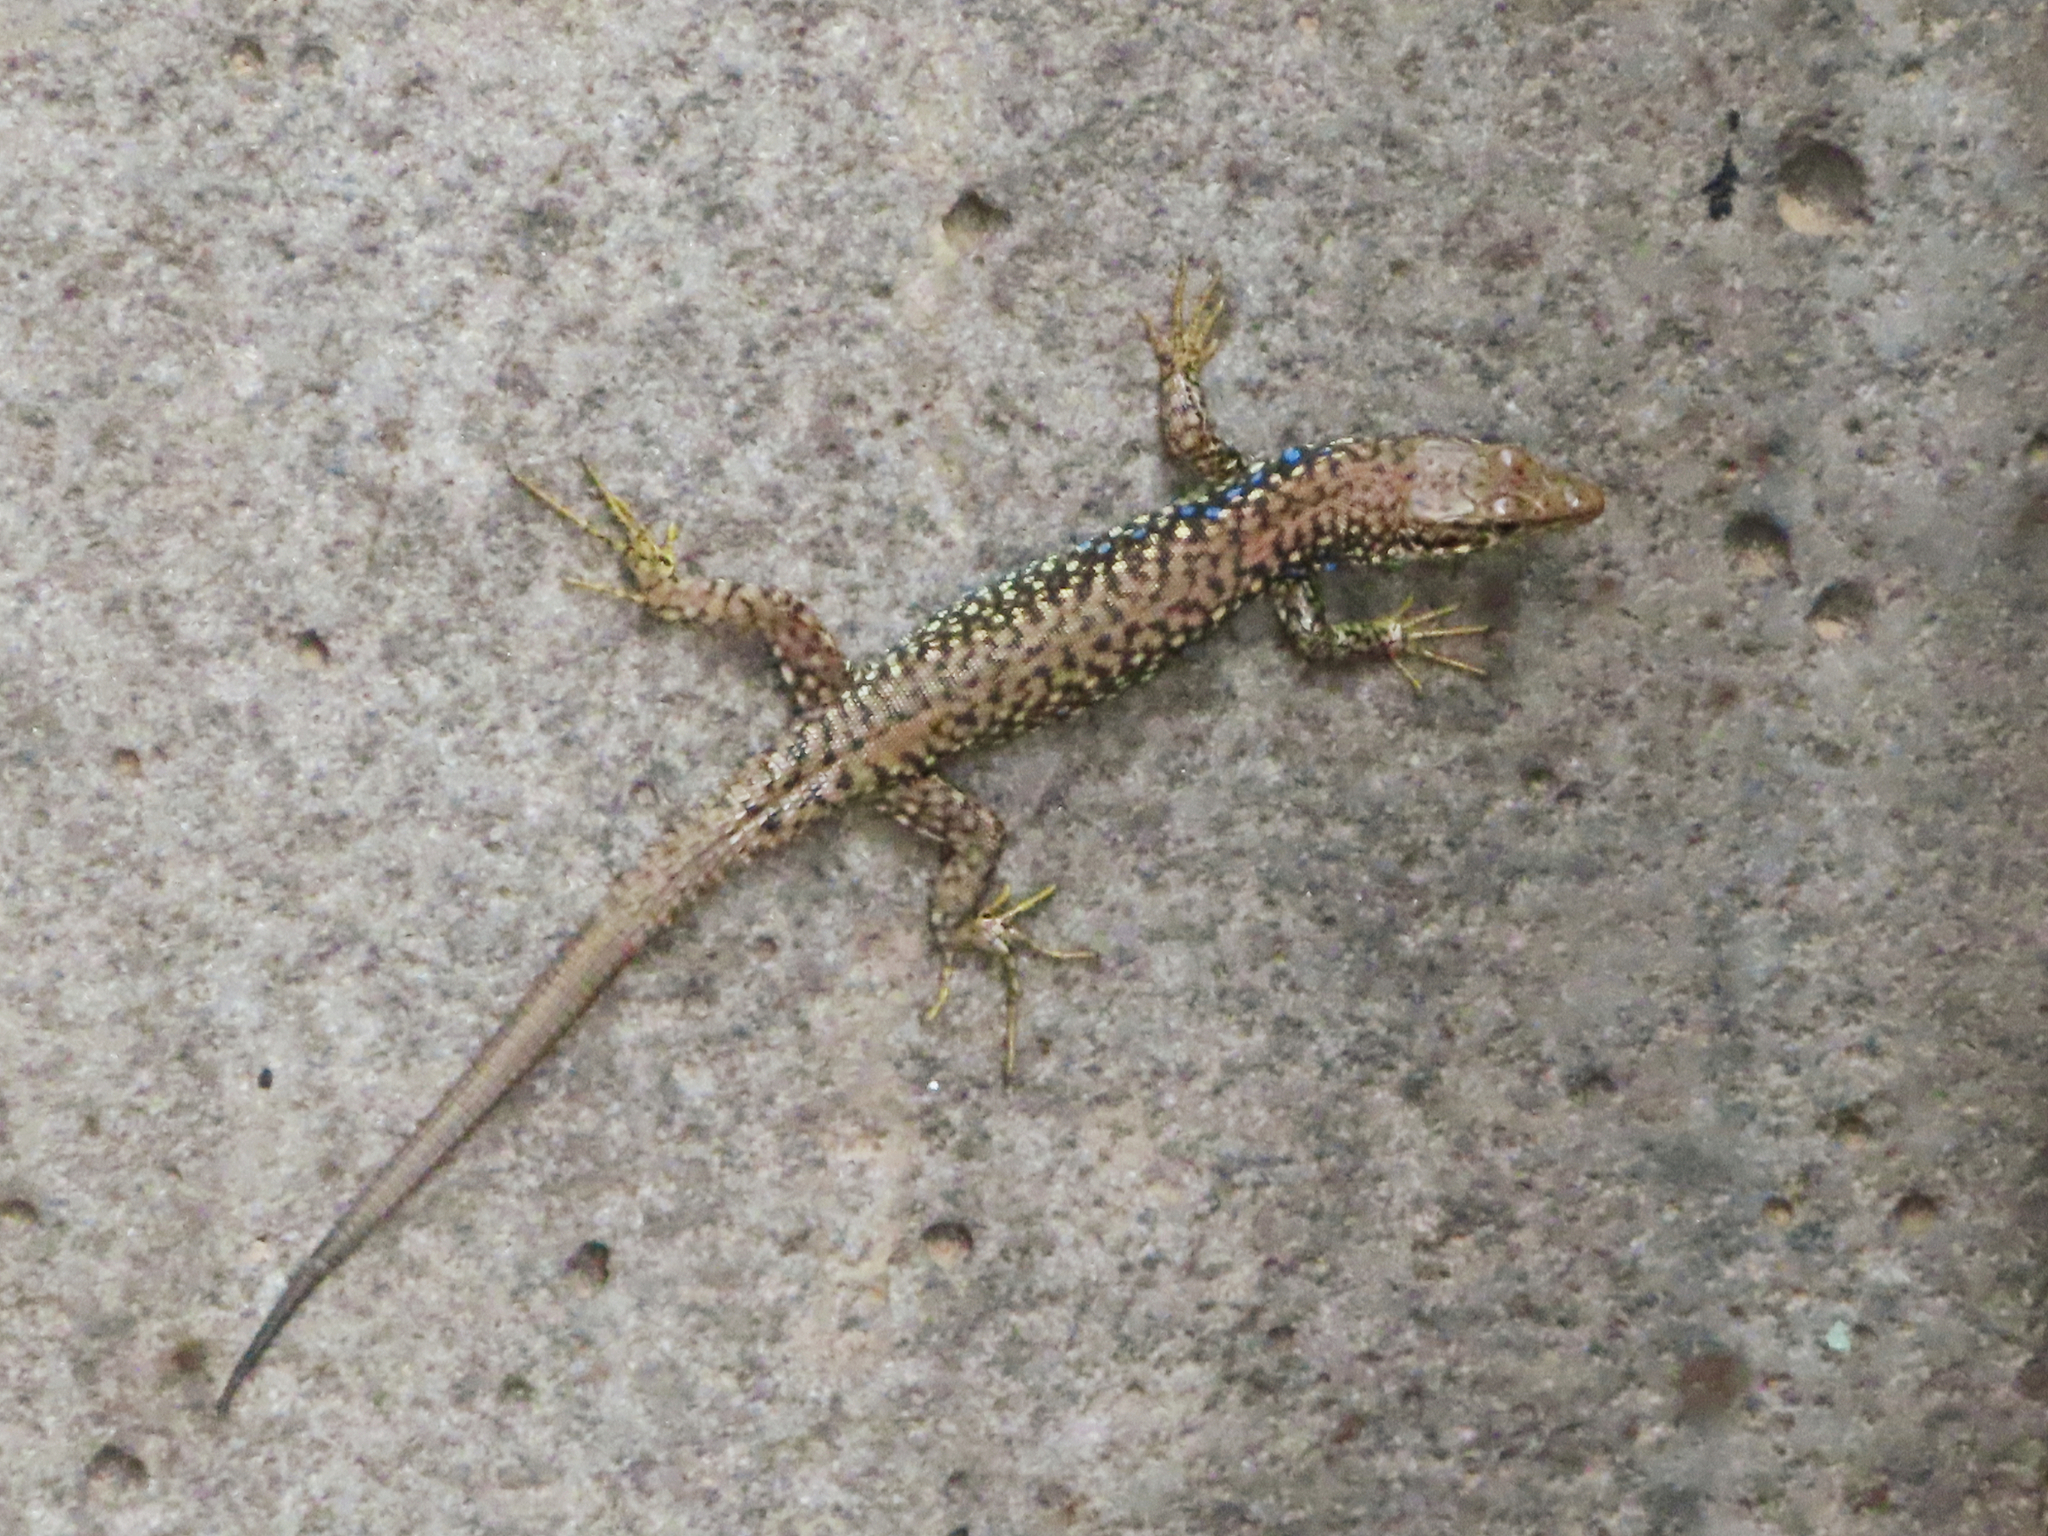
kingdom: Animalia
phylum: Chordata
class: Squamata
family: Lacertidae
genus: Darevskia
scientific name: Darevskia
